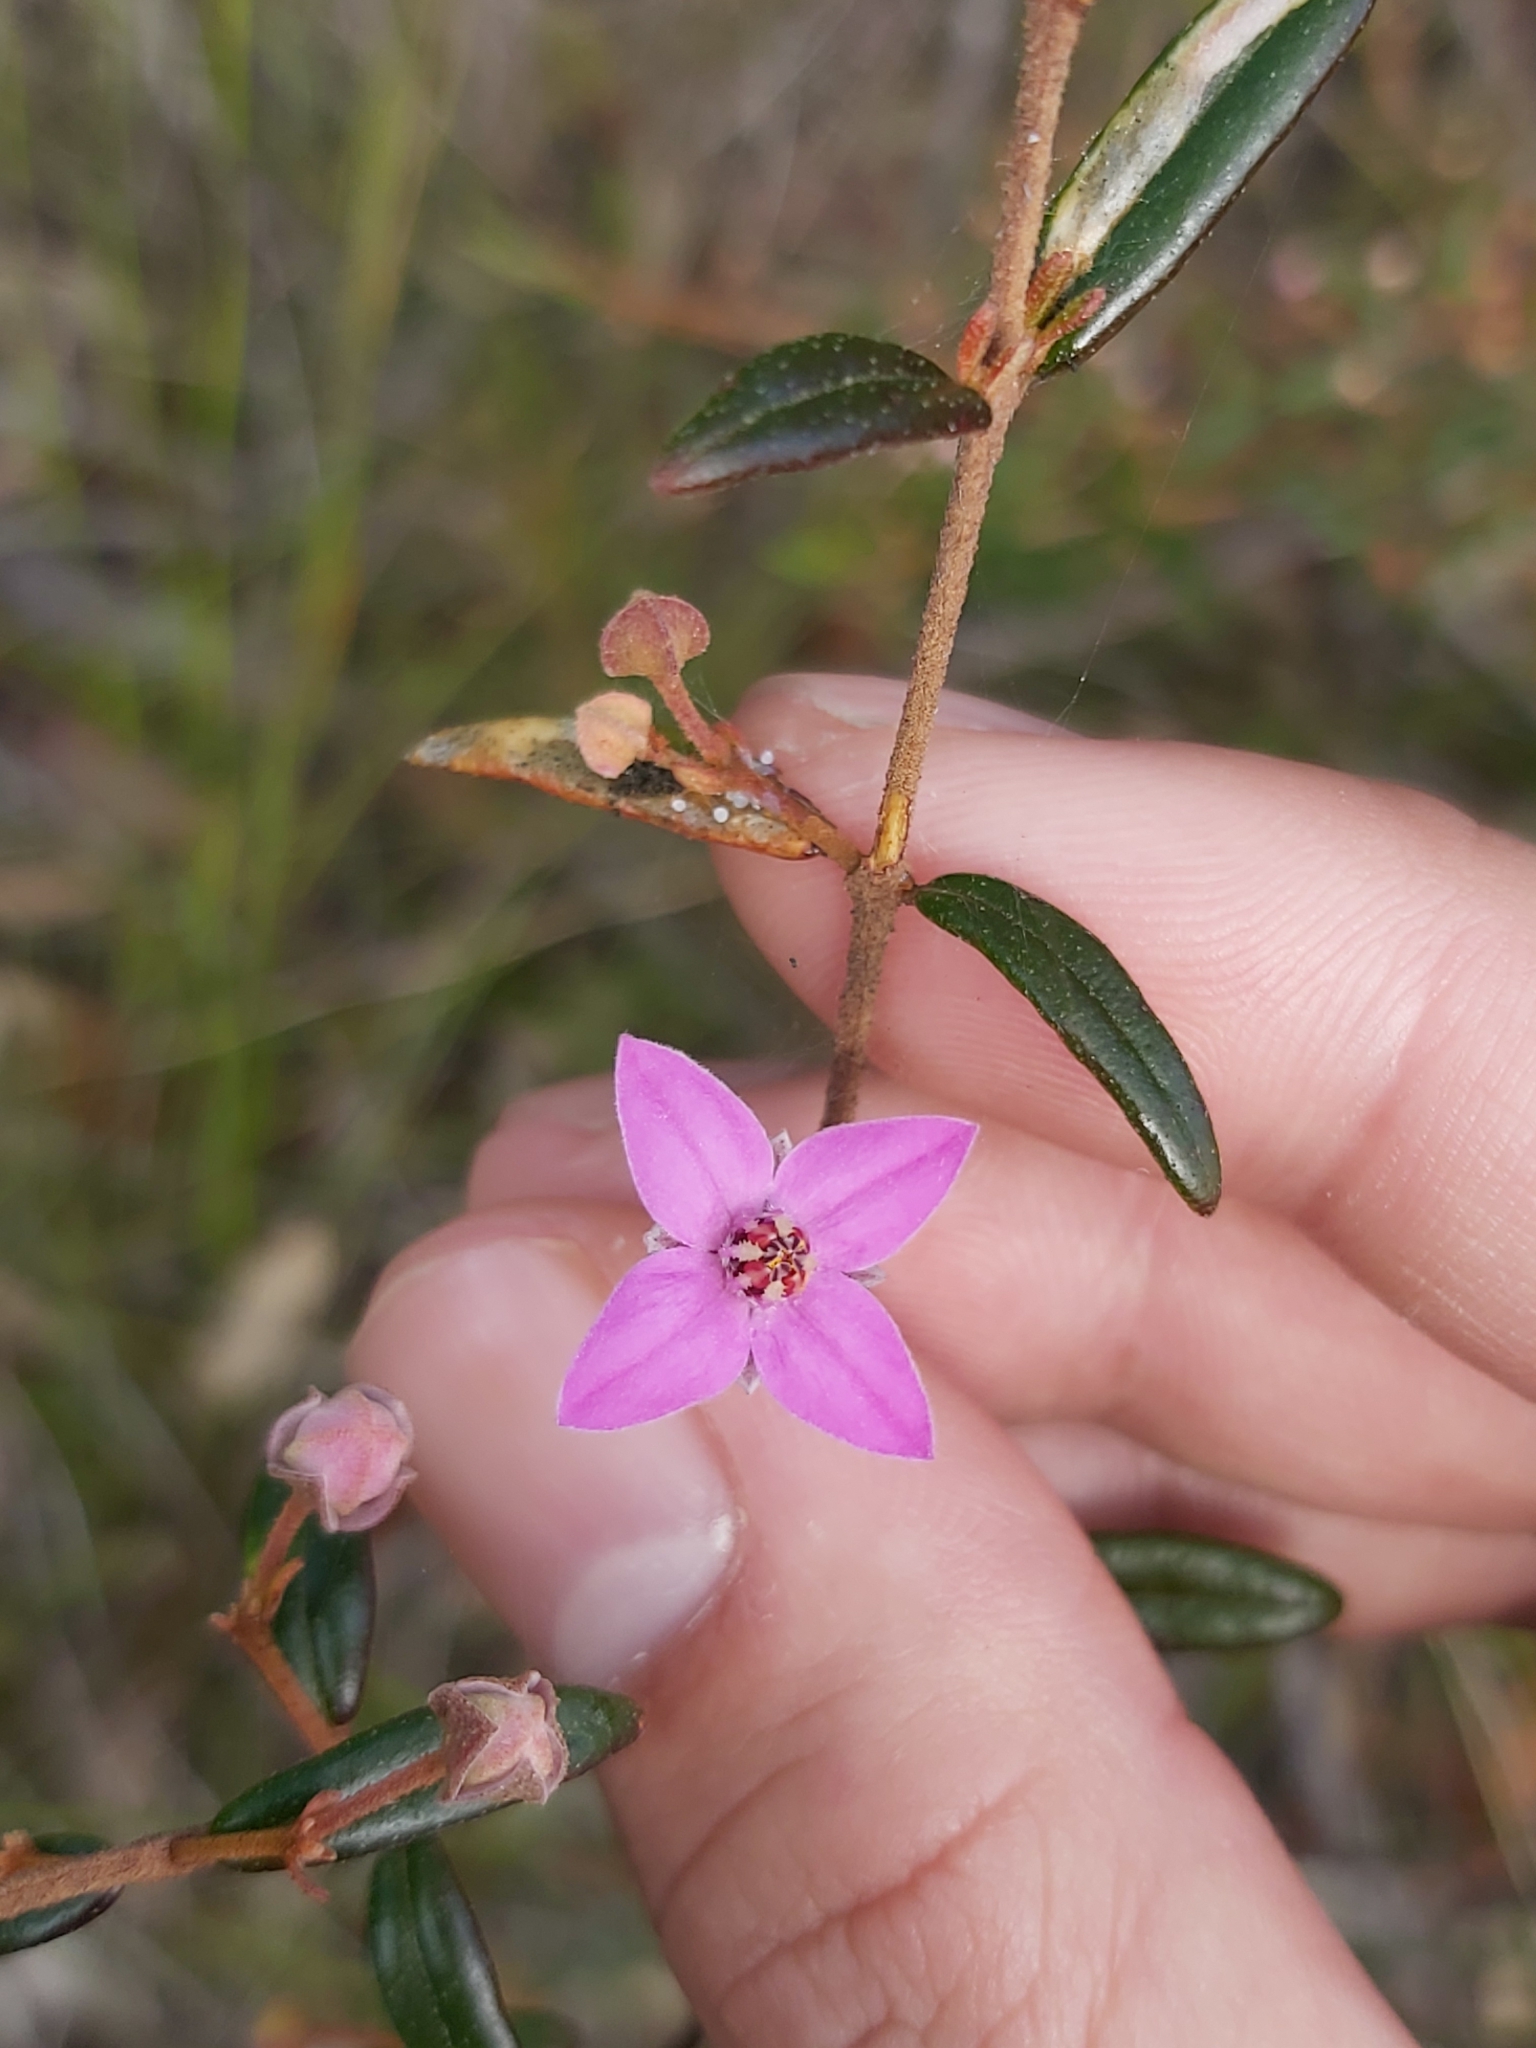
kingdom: Plantae
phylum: Tracheophyta
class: Magnoliopsida
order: Sapindales
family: Rutaceae
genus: Boronia
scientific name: Boronia ledifolia
